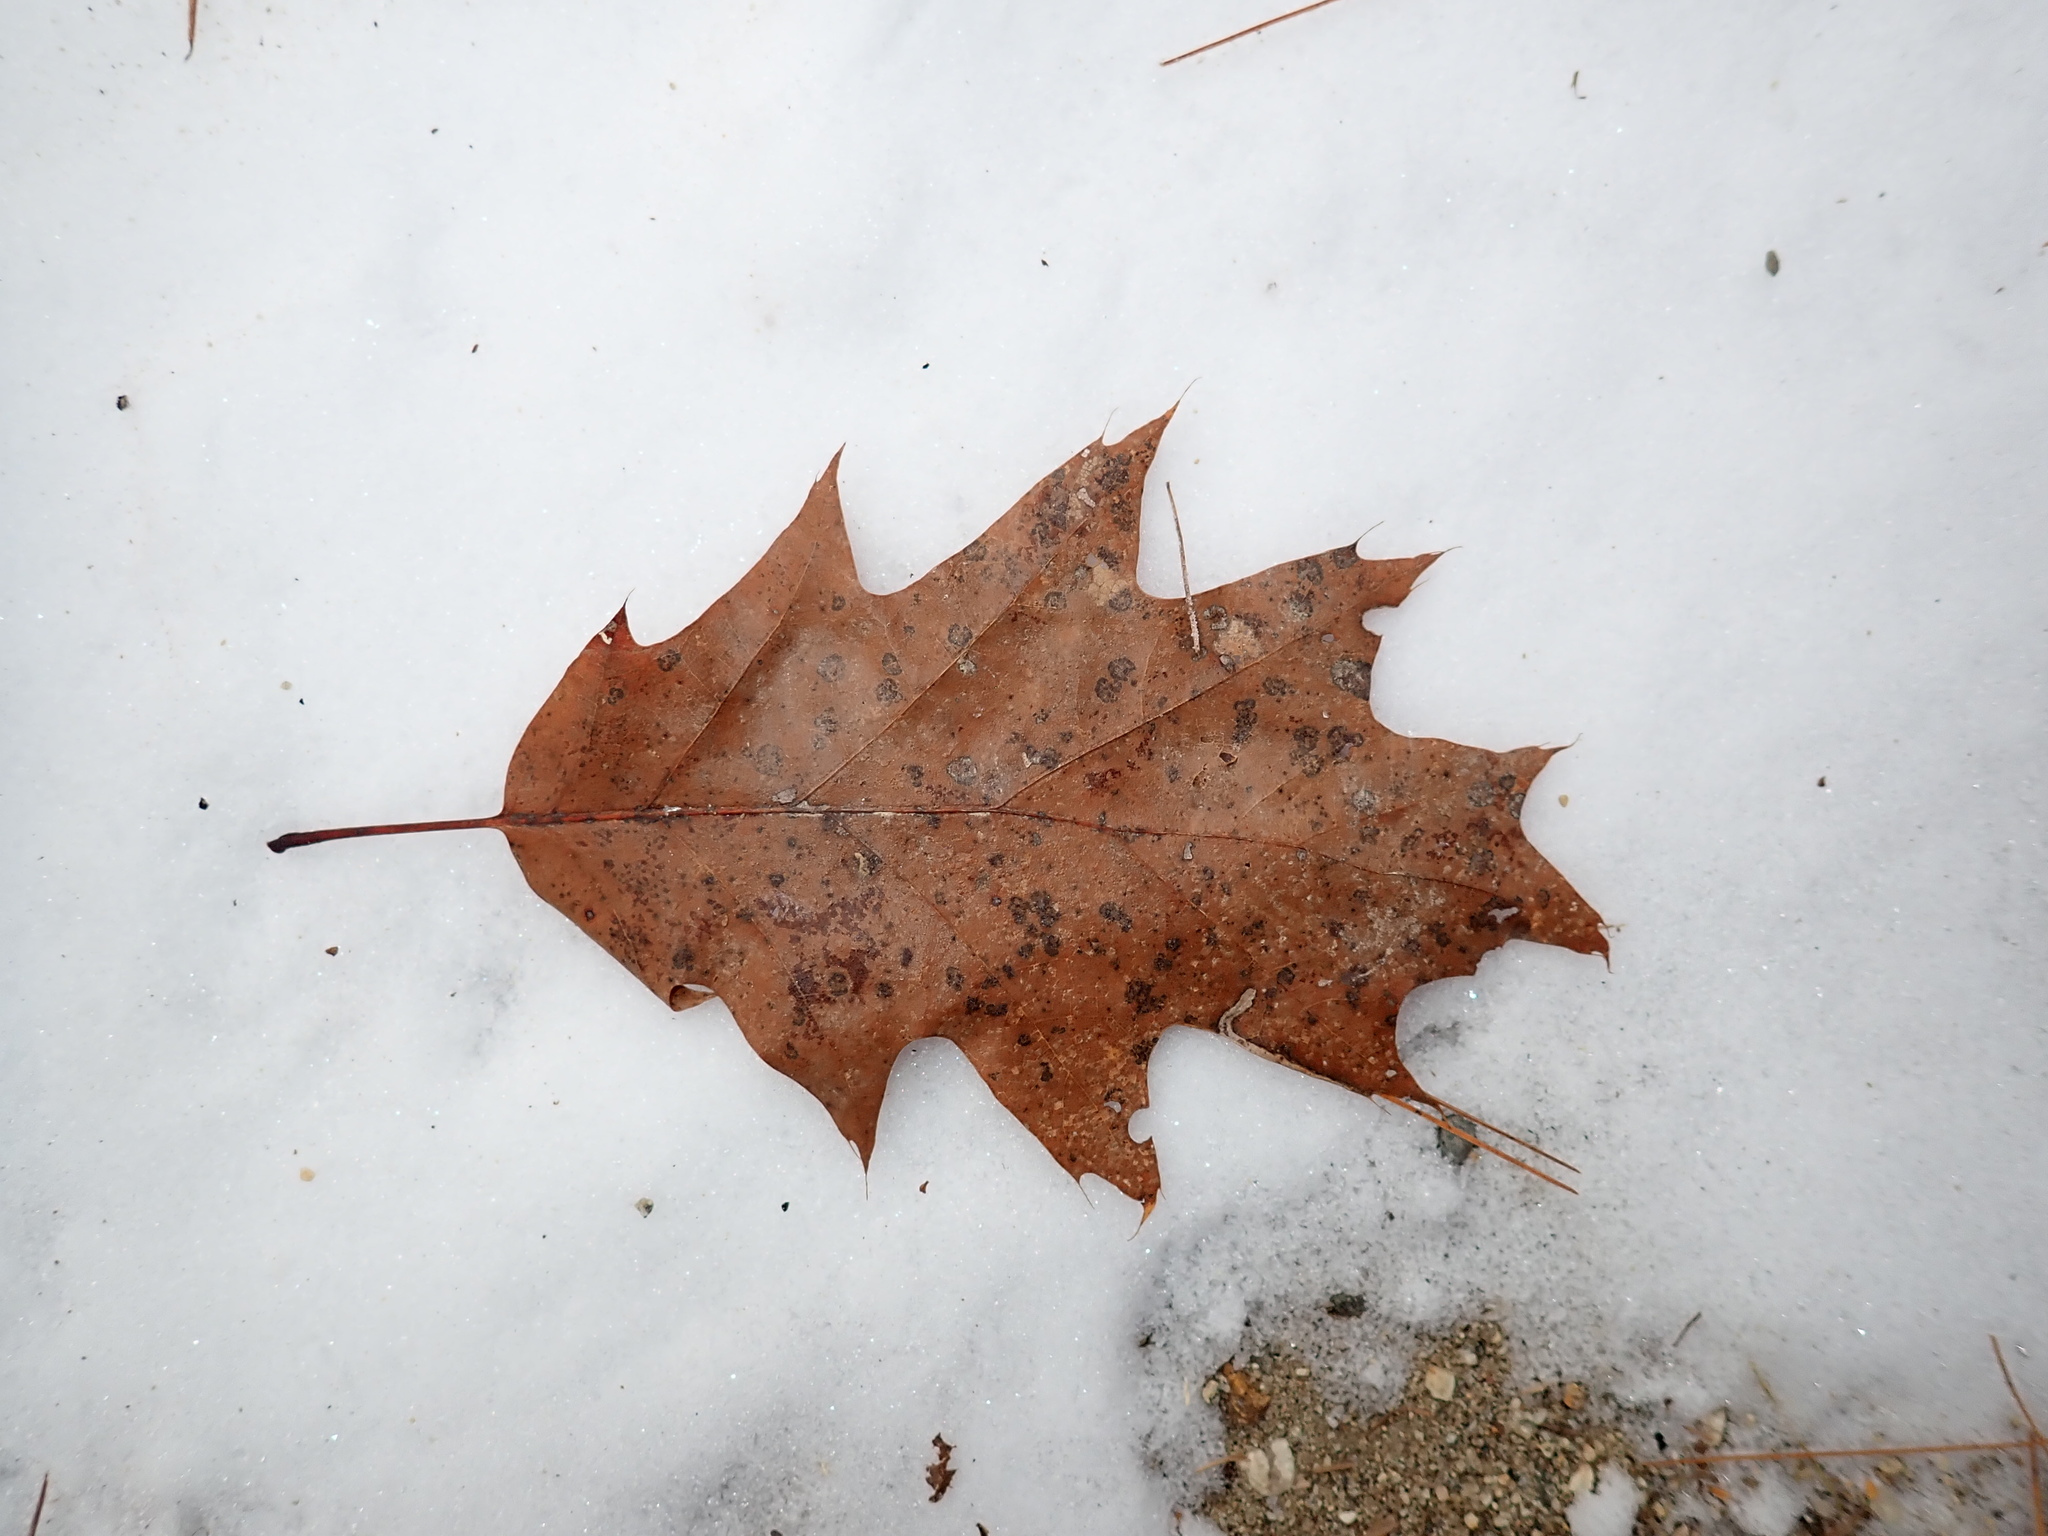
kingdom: Plantae
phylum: Tracheophyta
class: Magnoliopsida
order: Fagales
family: Fagaceae
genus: Quercus
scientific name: Quercus rubra
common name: Red oak
